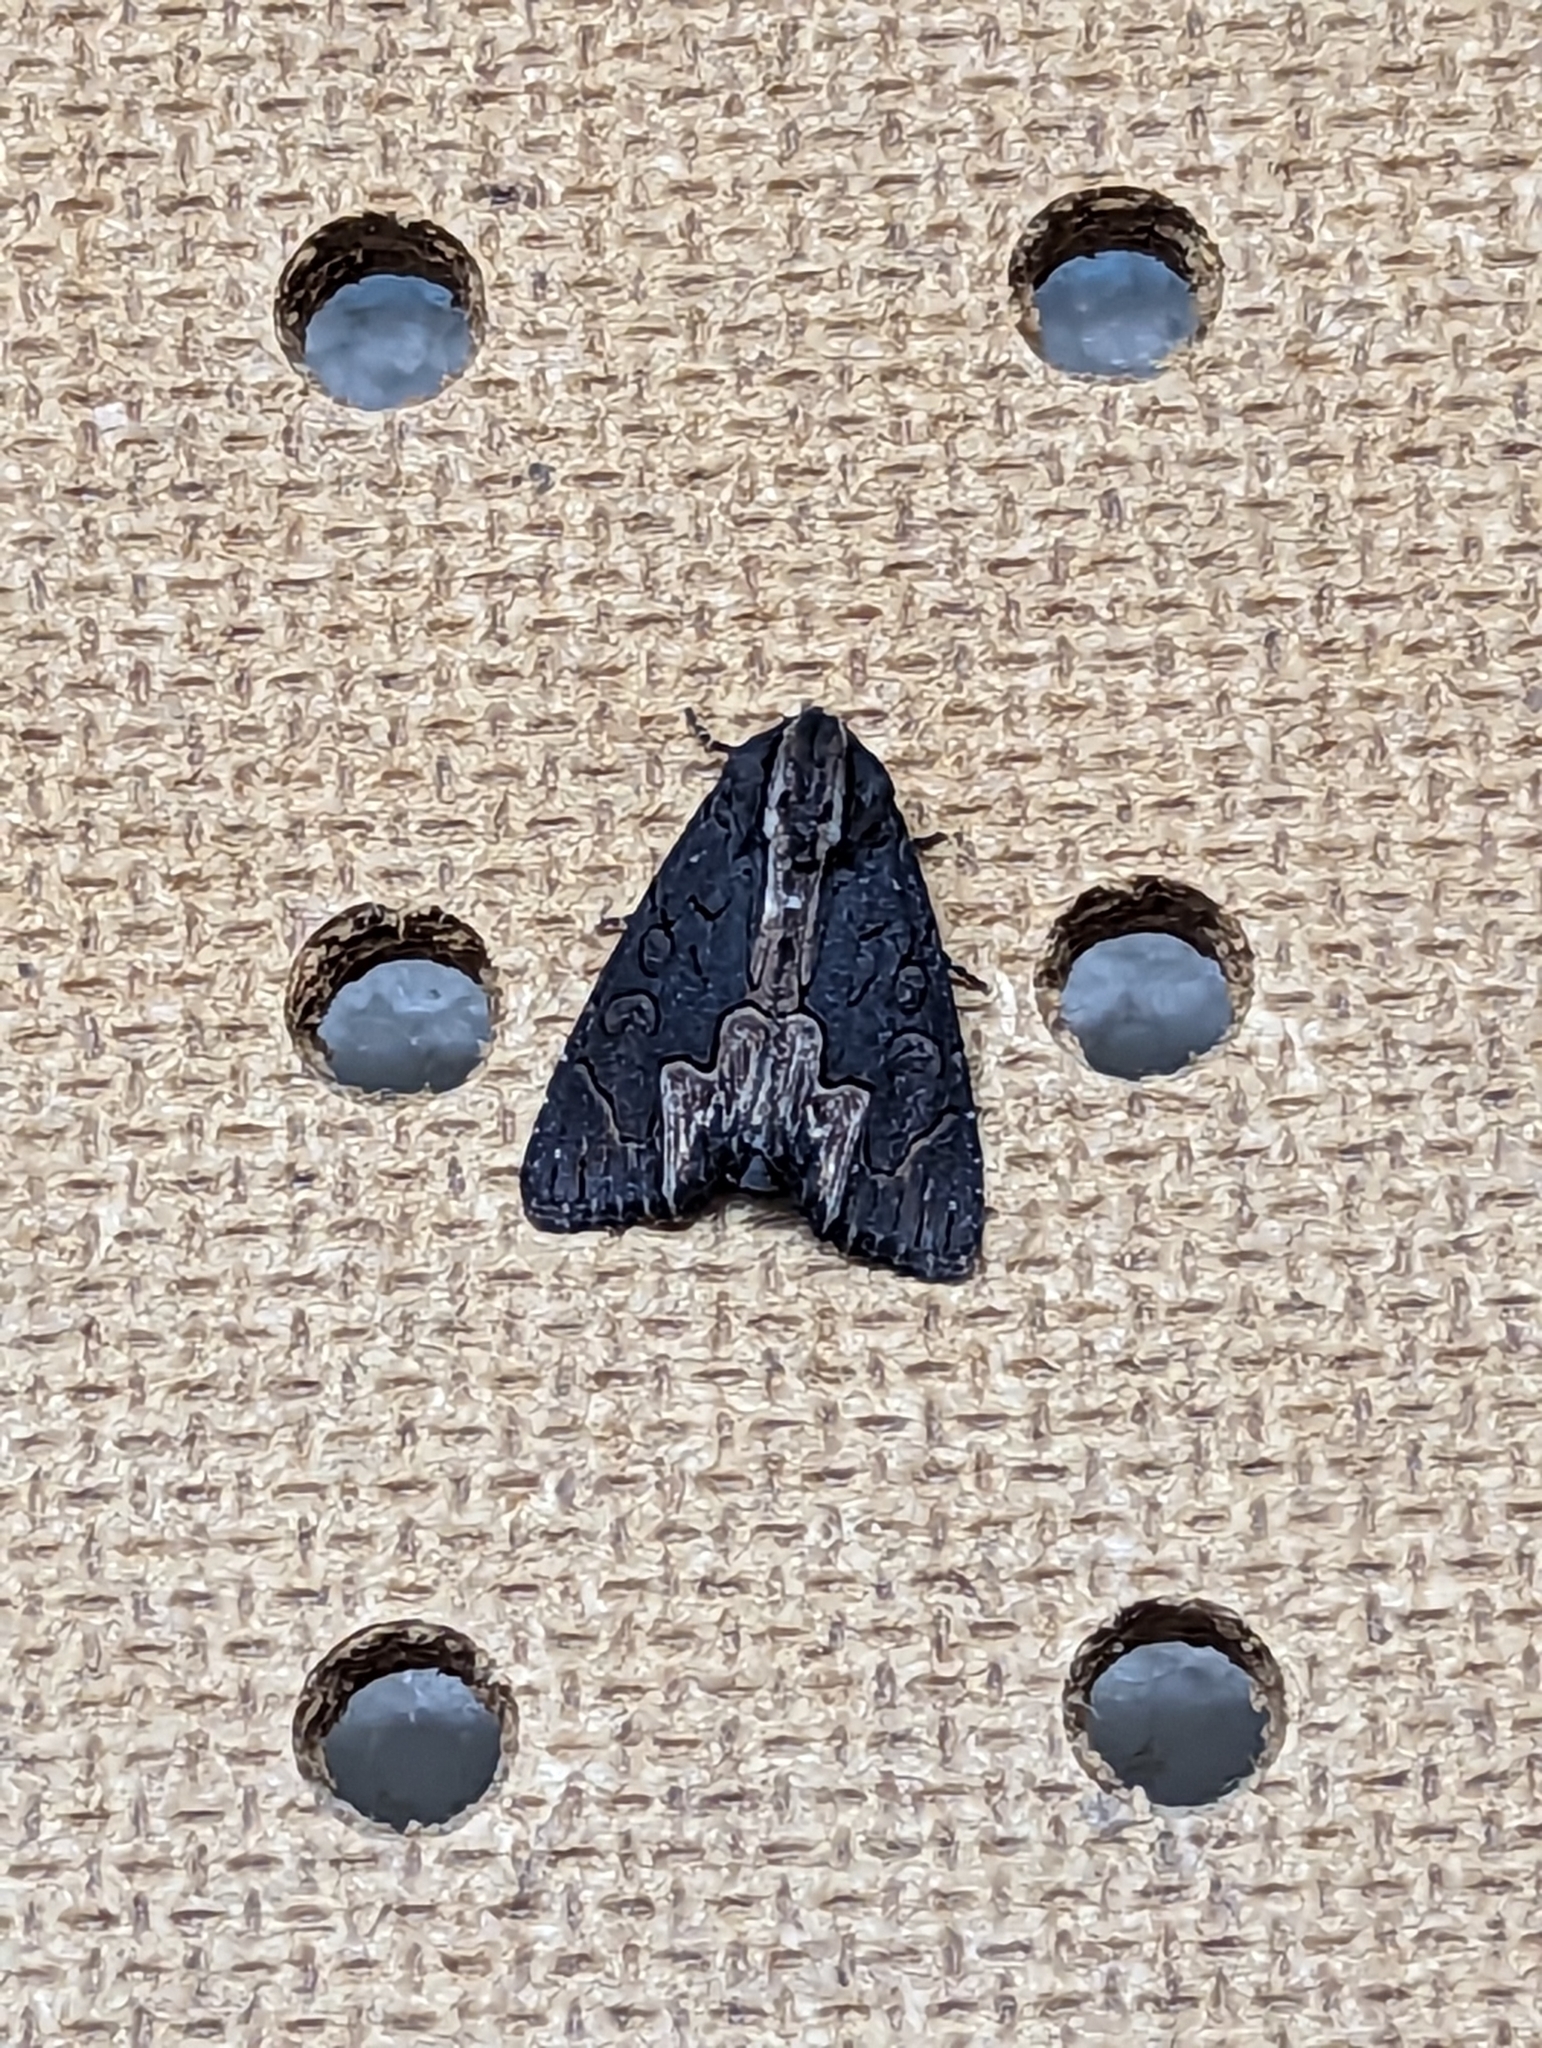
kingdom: Animalia
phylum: Arthropoda
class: Insecta
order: Lepidoptera
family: Noctuidae
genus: Dypterygia
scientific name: Dypterygia rozmani
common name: American bird's-wing
